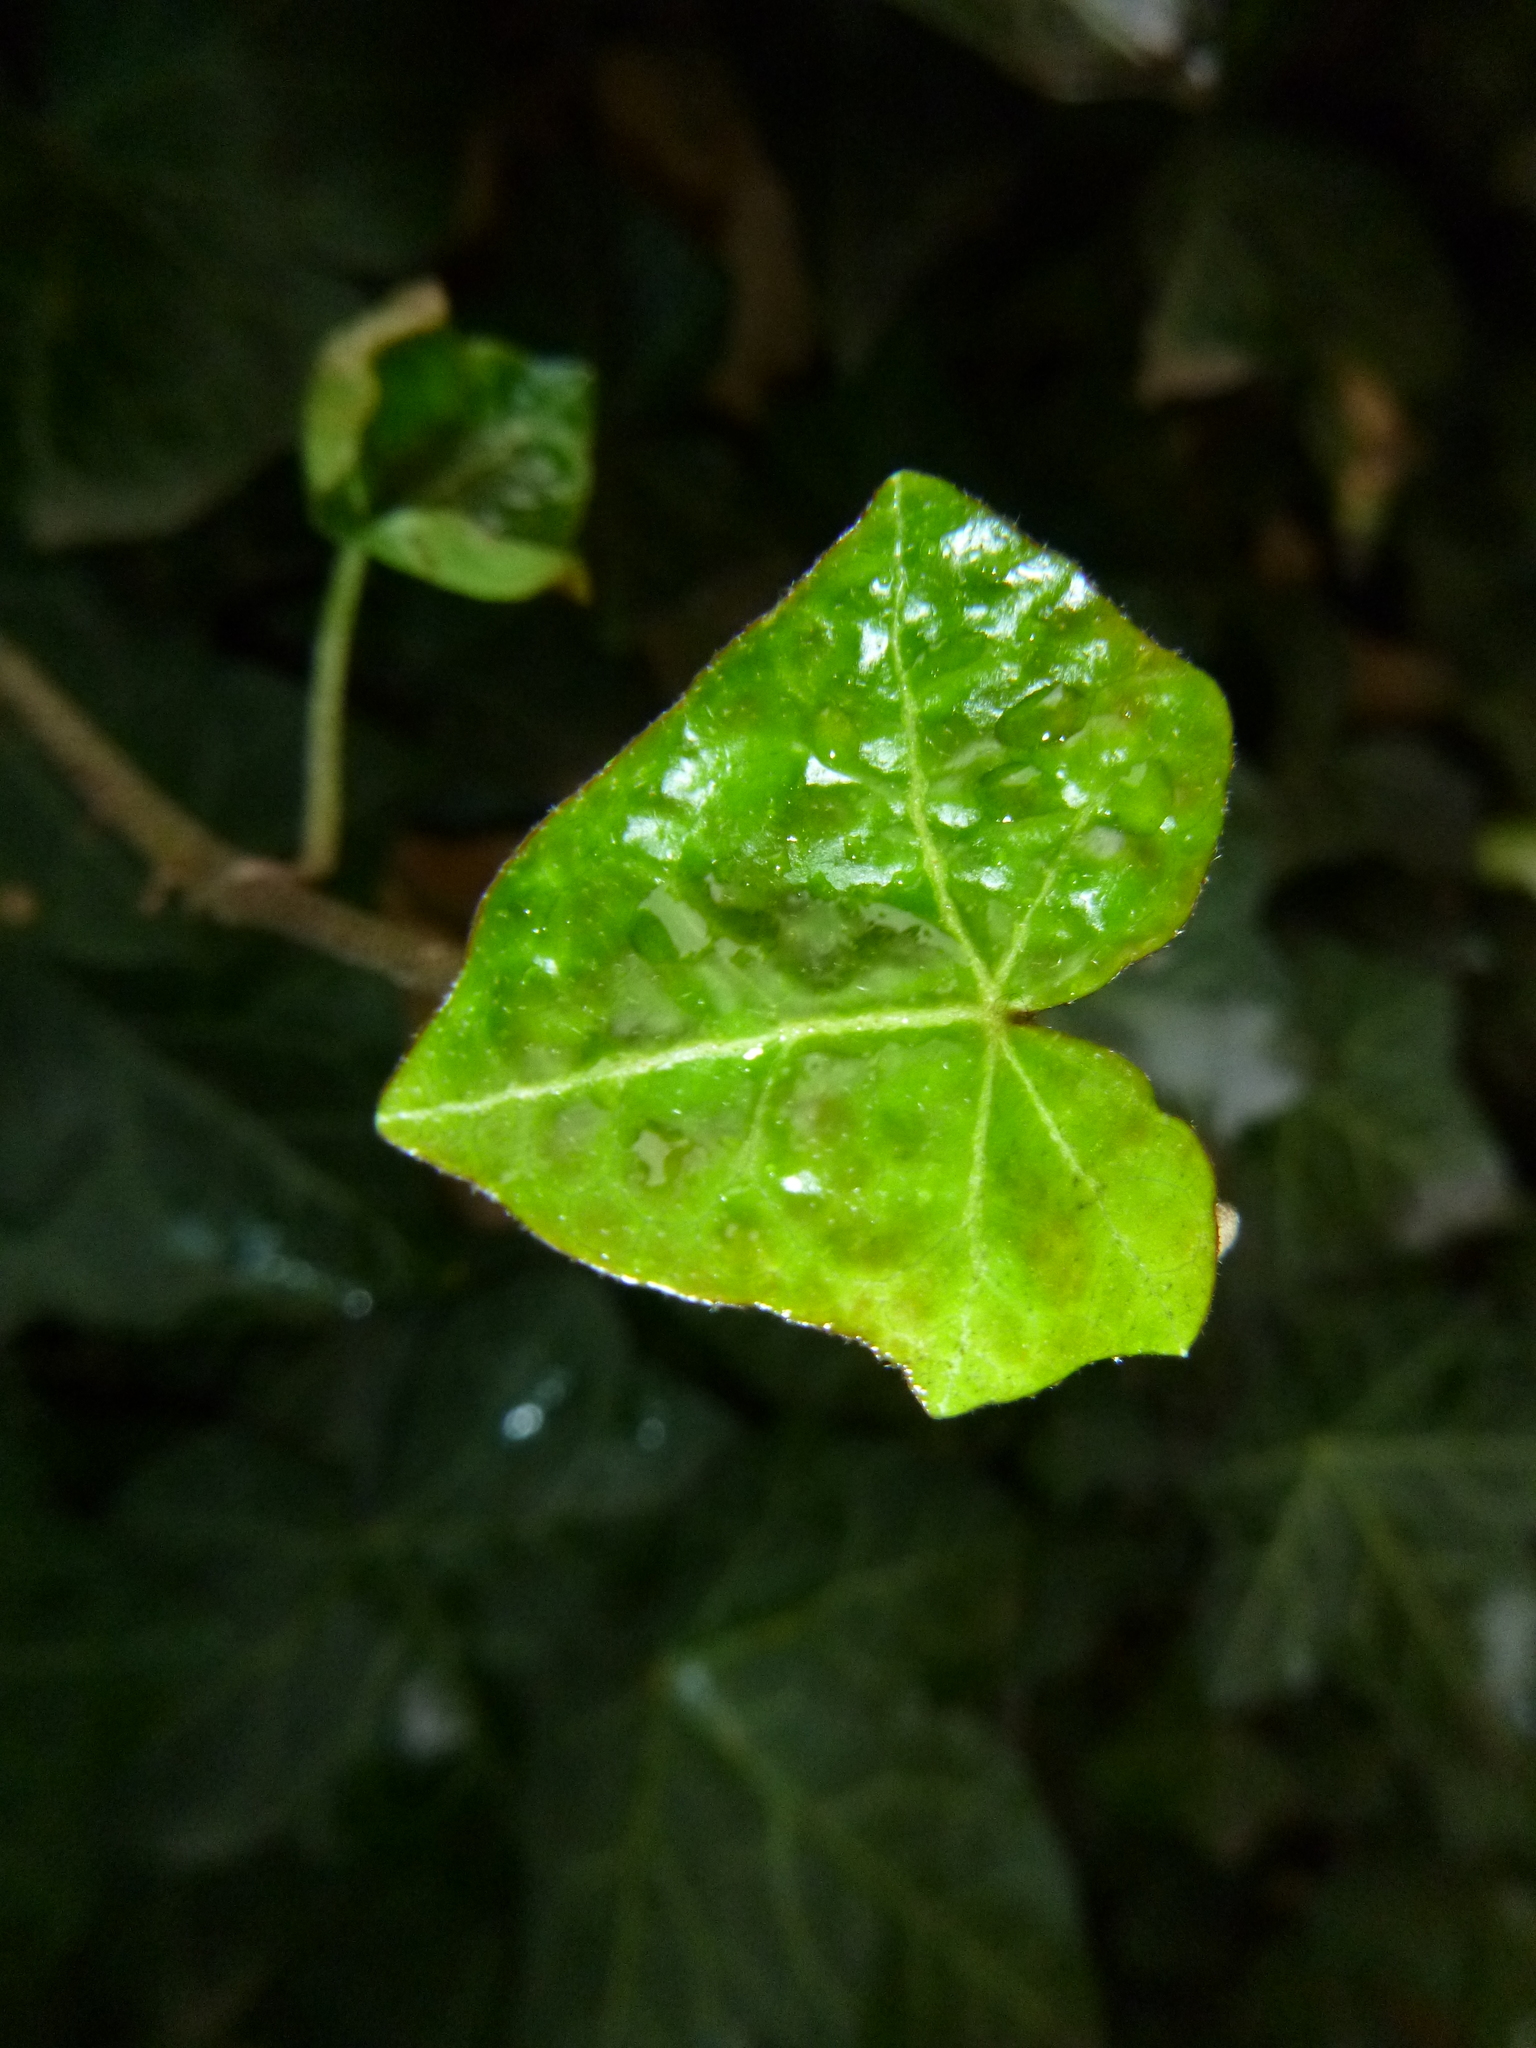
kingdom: Plantae
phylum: Tracheophyta
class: Magnoliopsida
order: Apiales
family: Araliaceae
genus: Hedera
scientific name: Hedera helix
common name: Ivy
